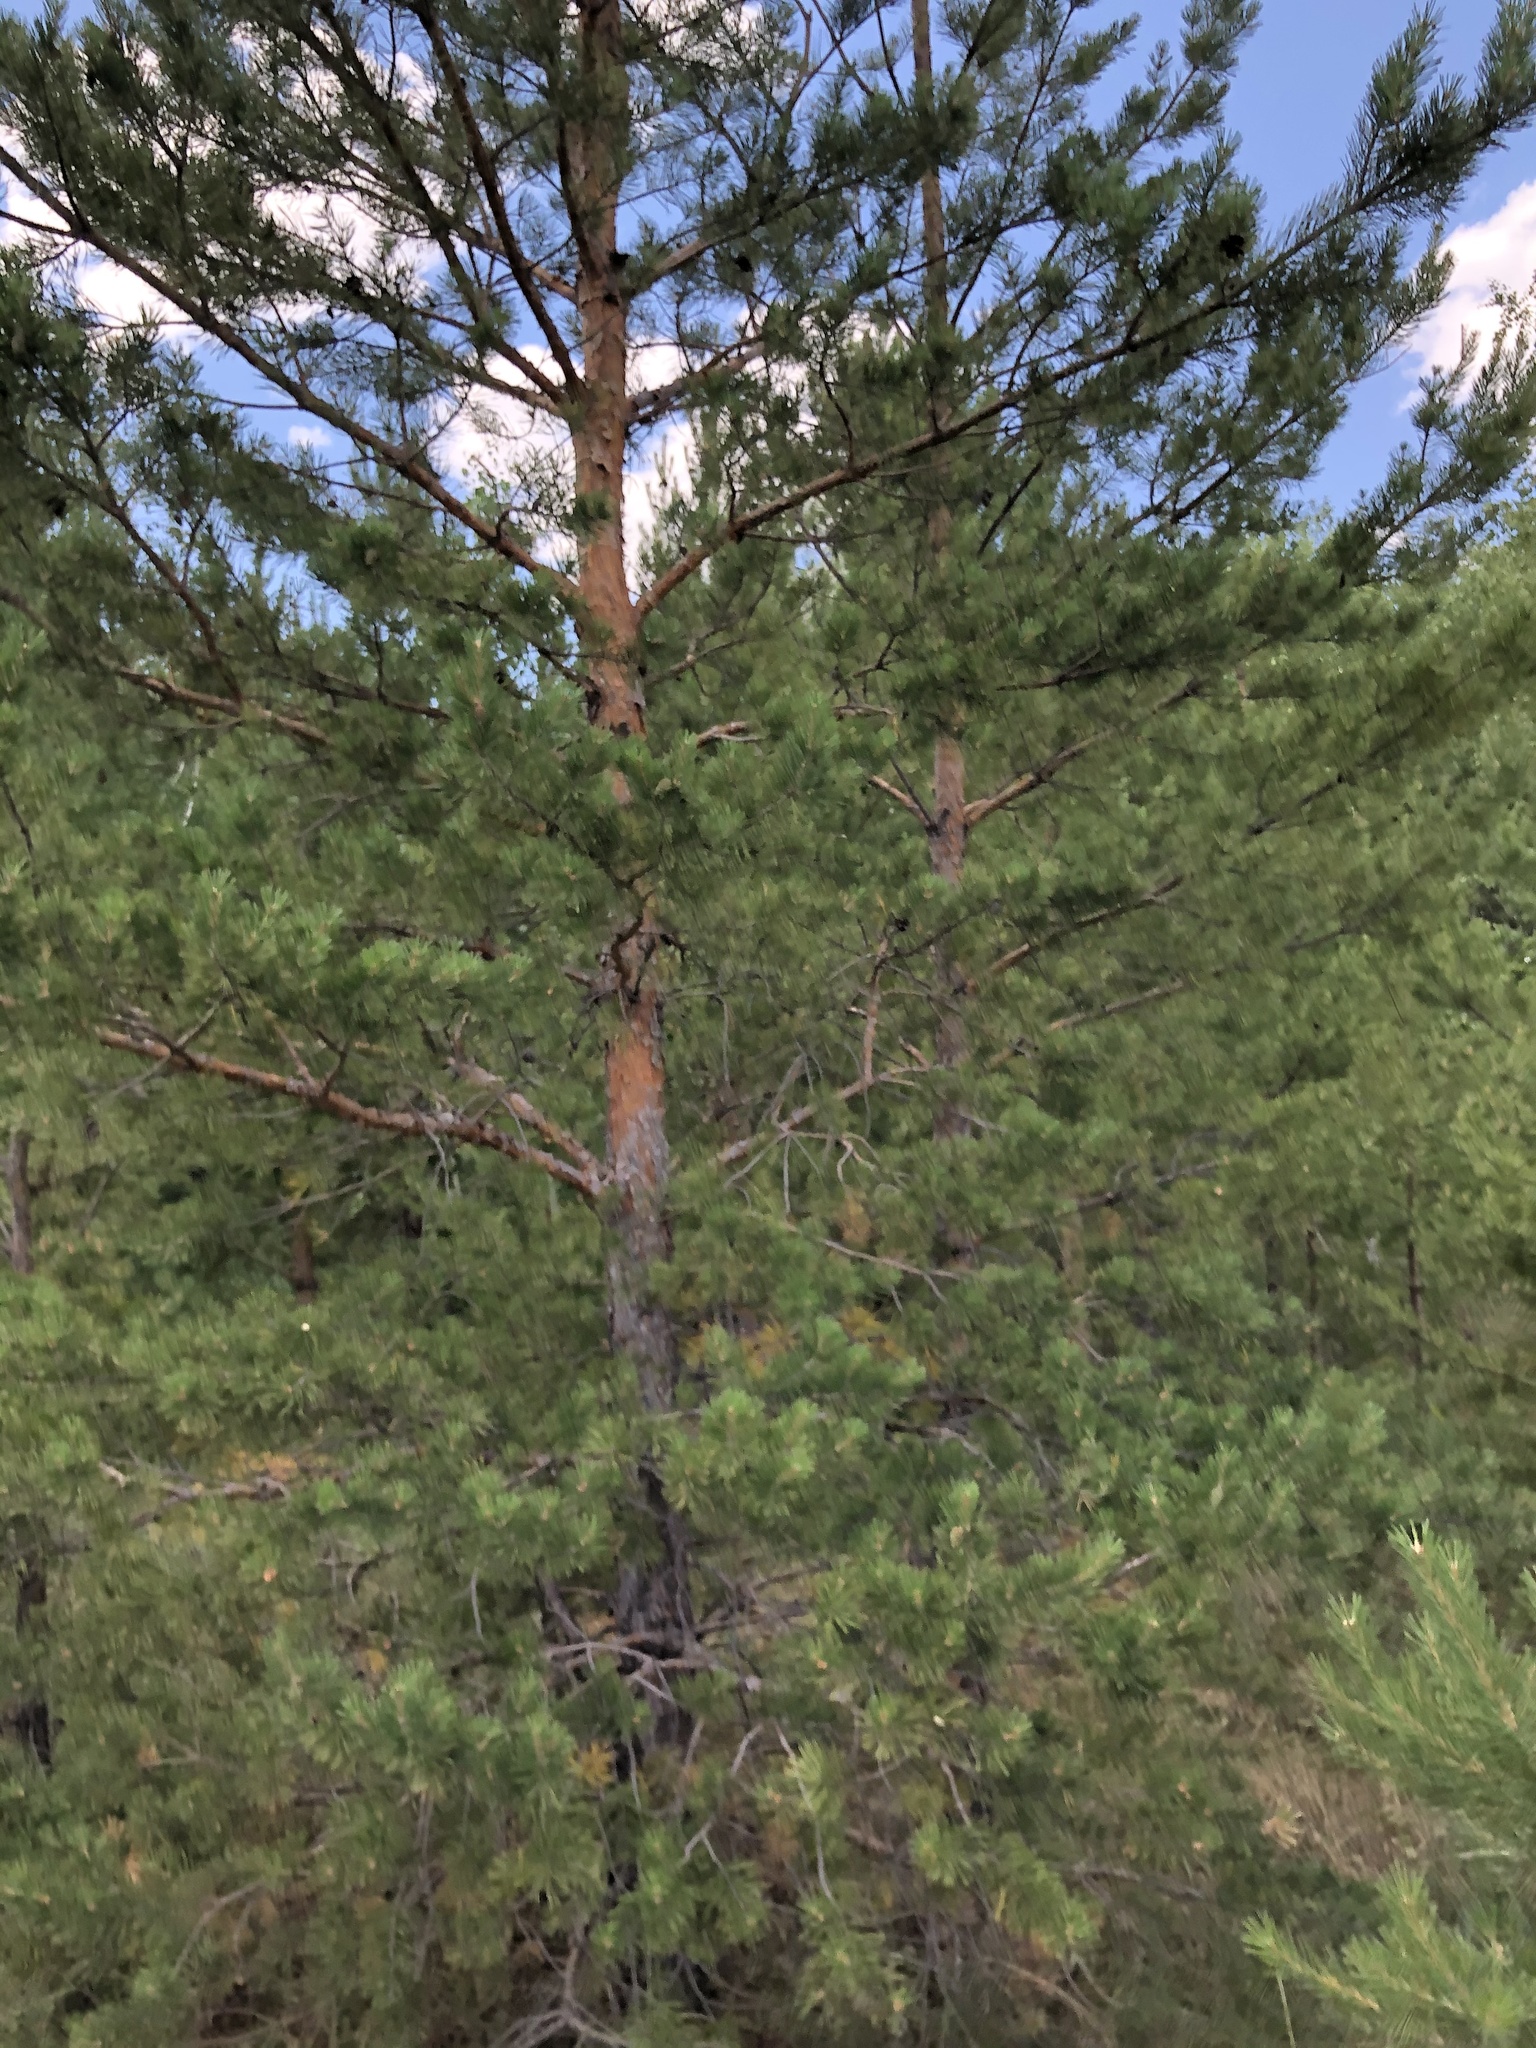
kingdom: Plantae
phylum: Tracheophyta
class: Pinopsida
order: Pinales
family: Pinaceae
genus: Pinus
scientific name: Pinus sylvestris
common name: Scots pine
